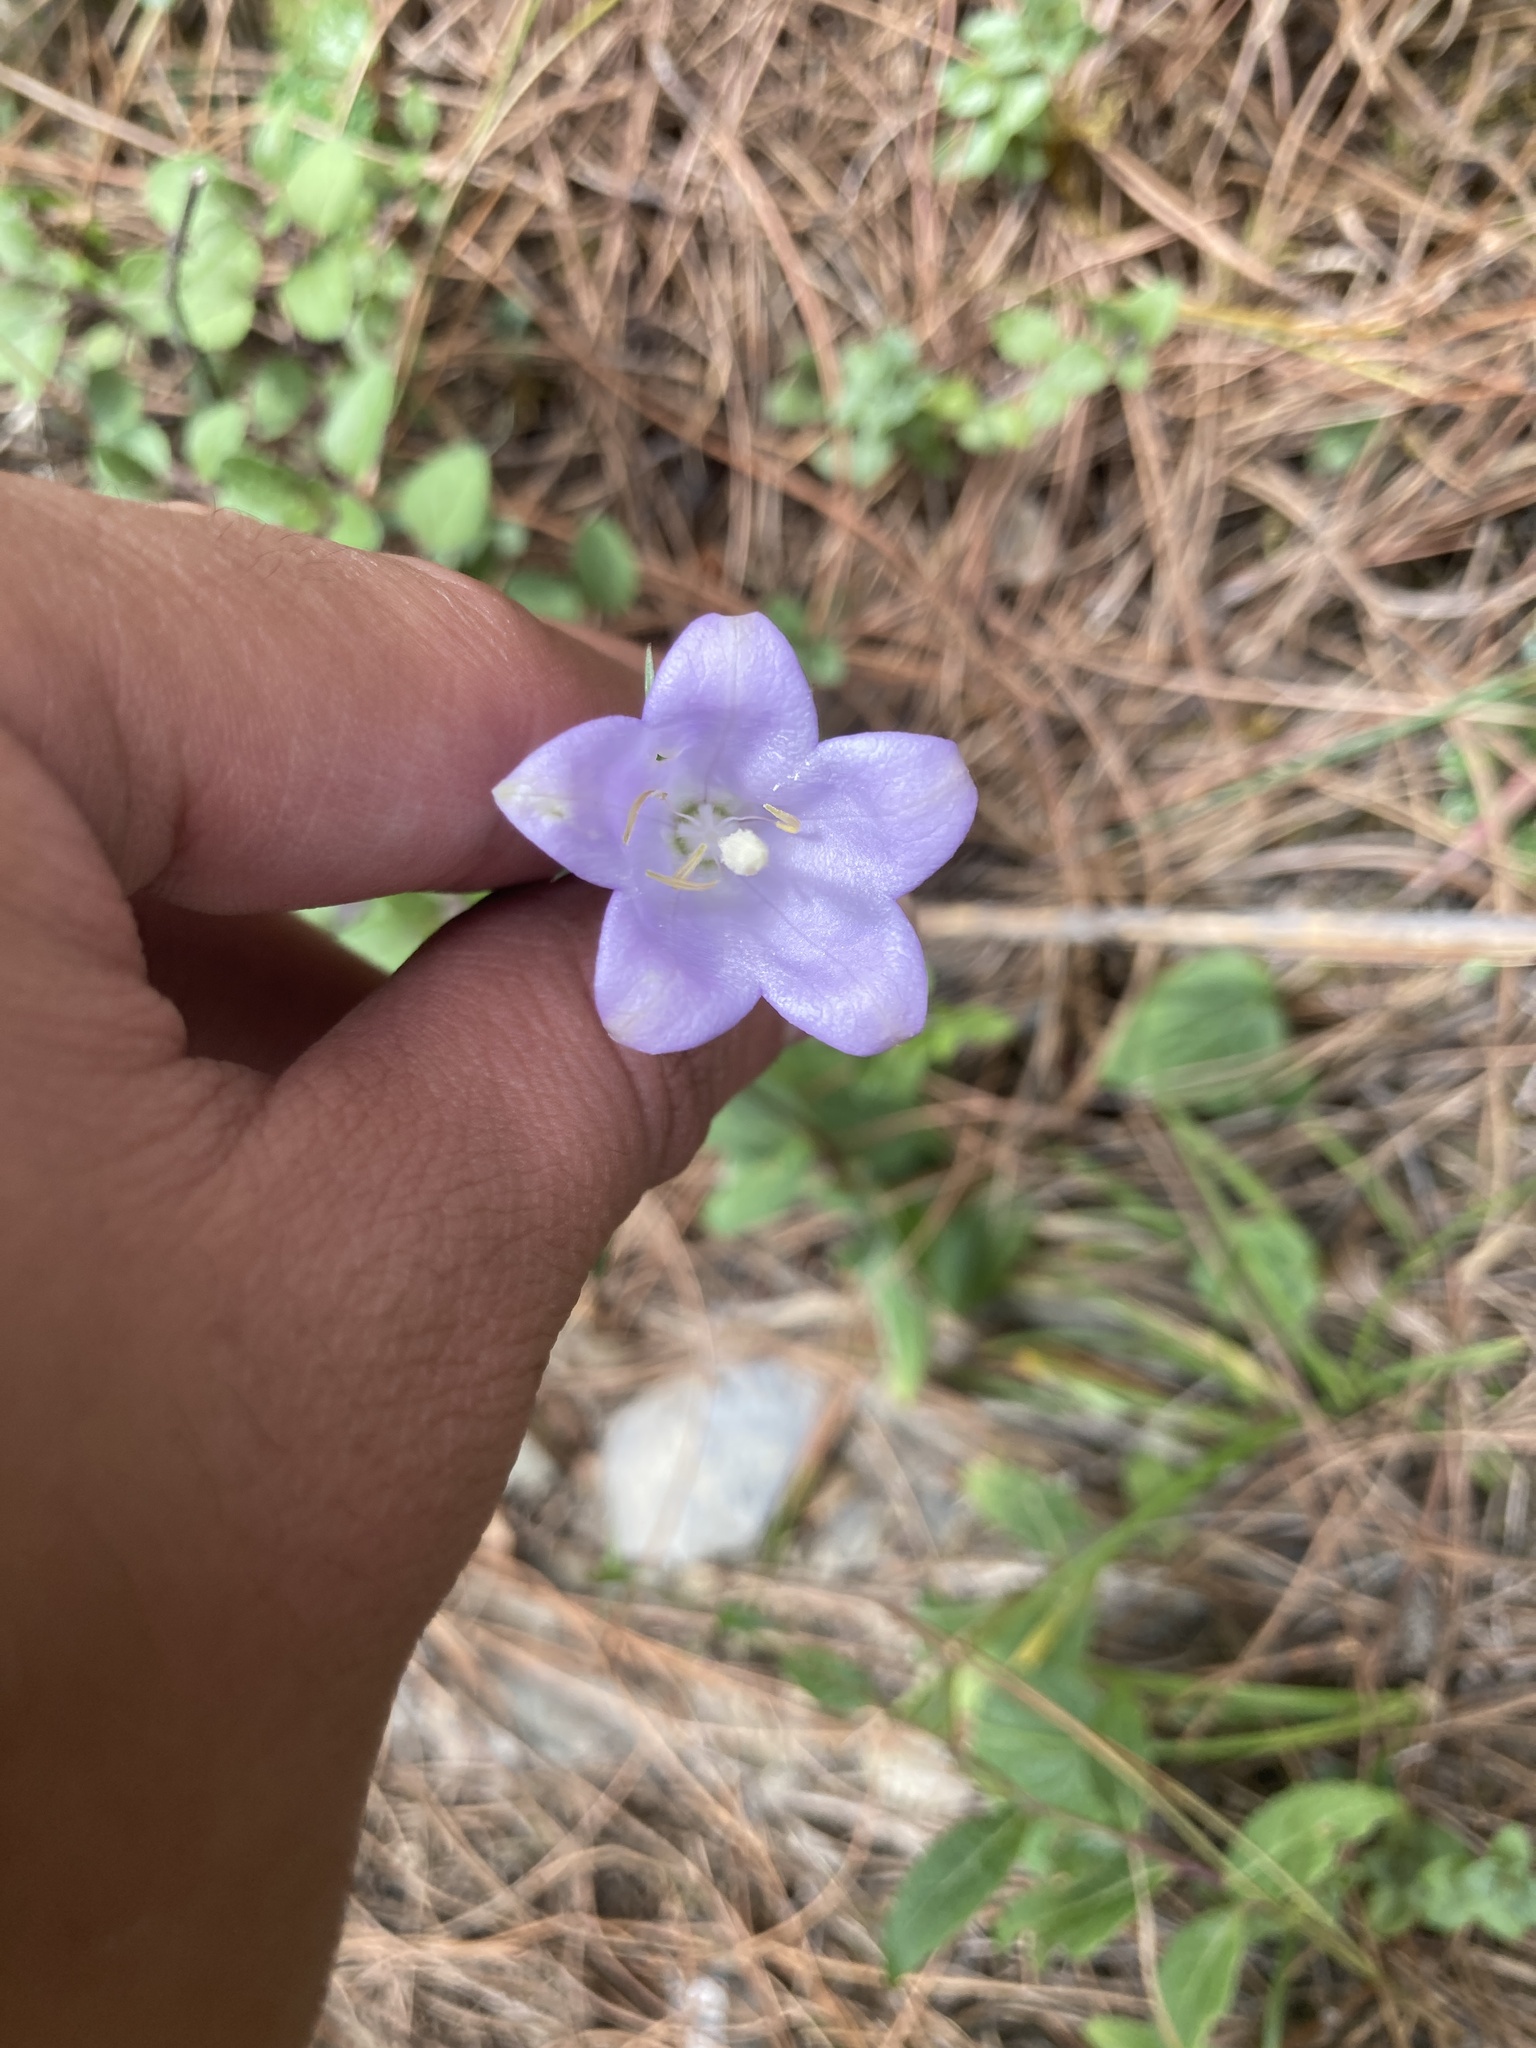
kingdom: Plantae
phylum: Tracheophyta
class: Magnoliopsida
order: Asterales
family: Campanulaceae
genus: Adenophora
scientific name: Adenophora morrisonensis
